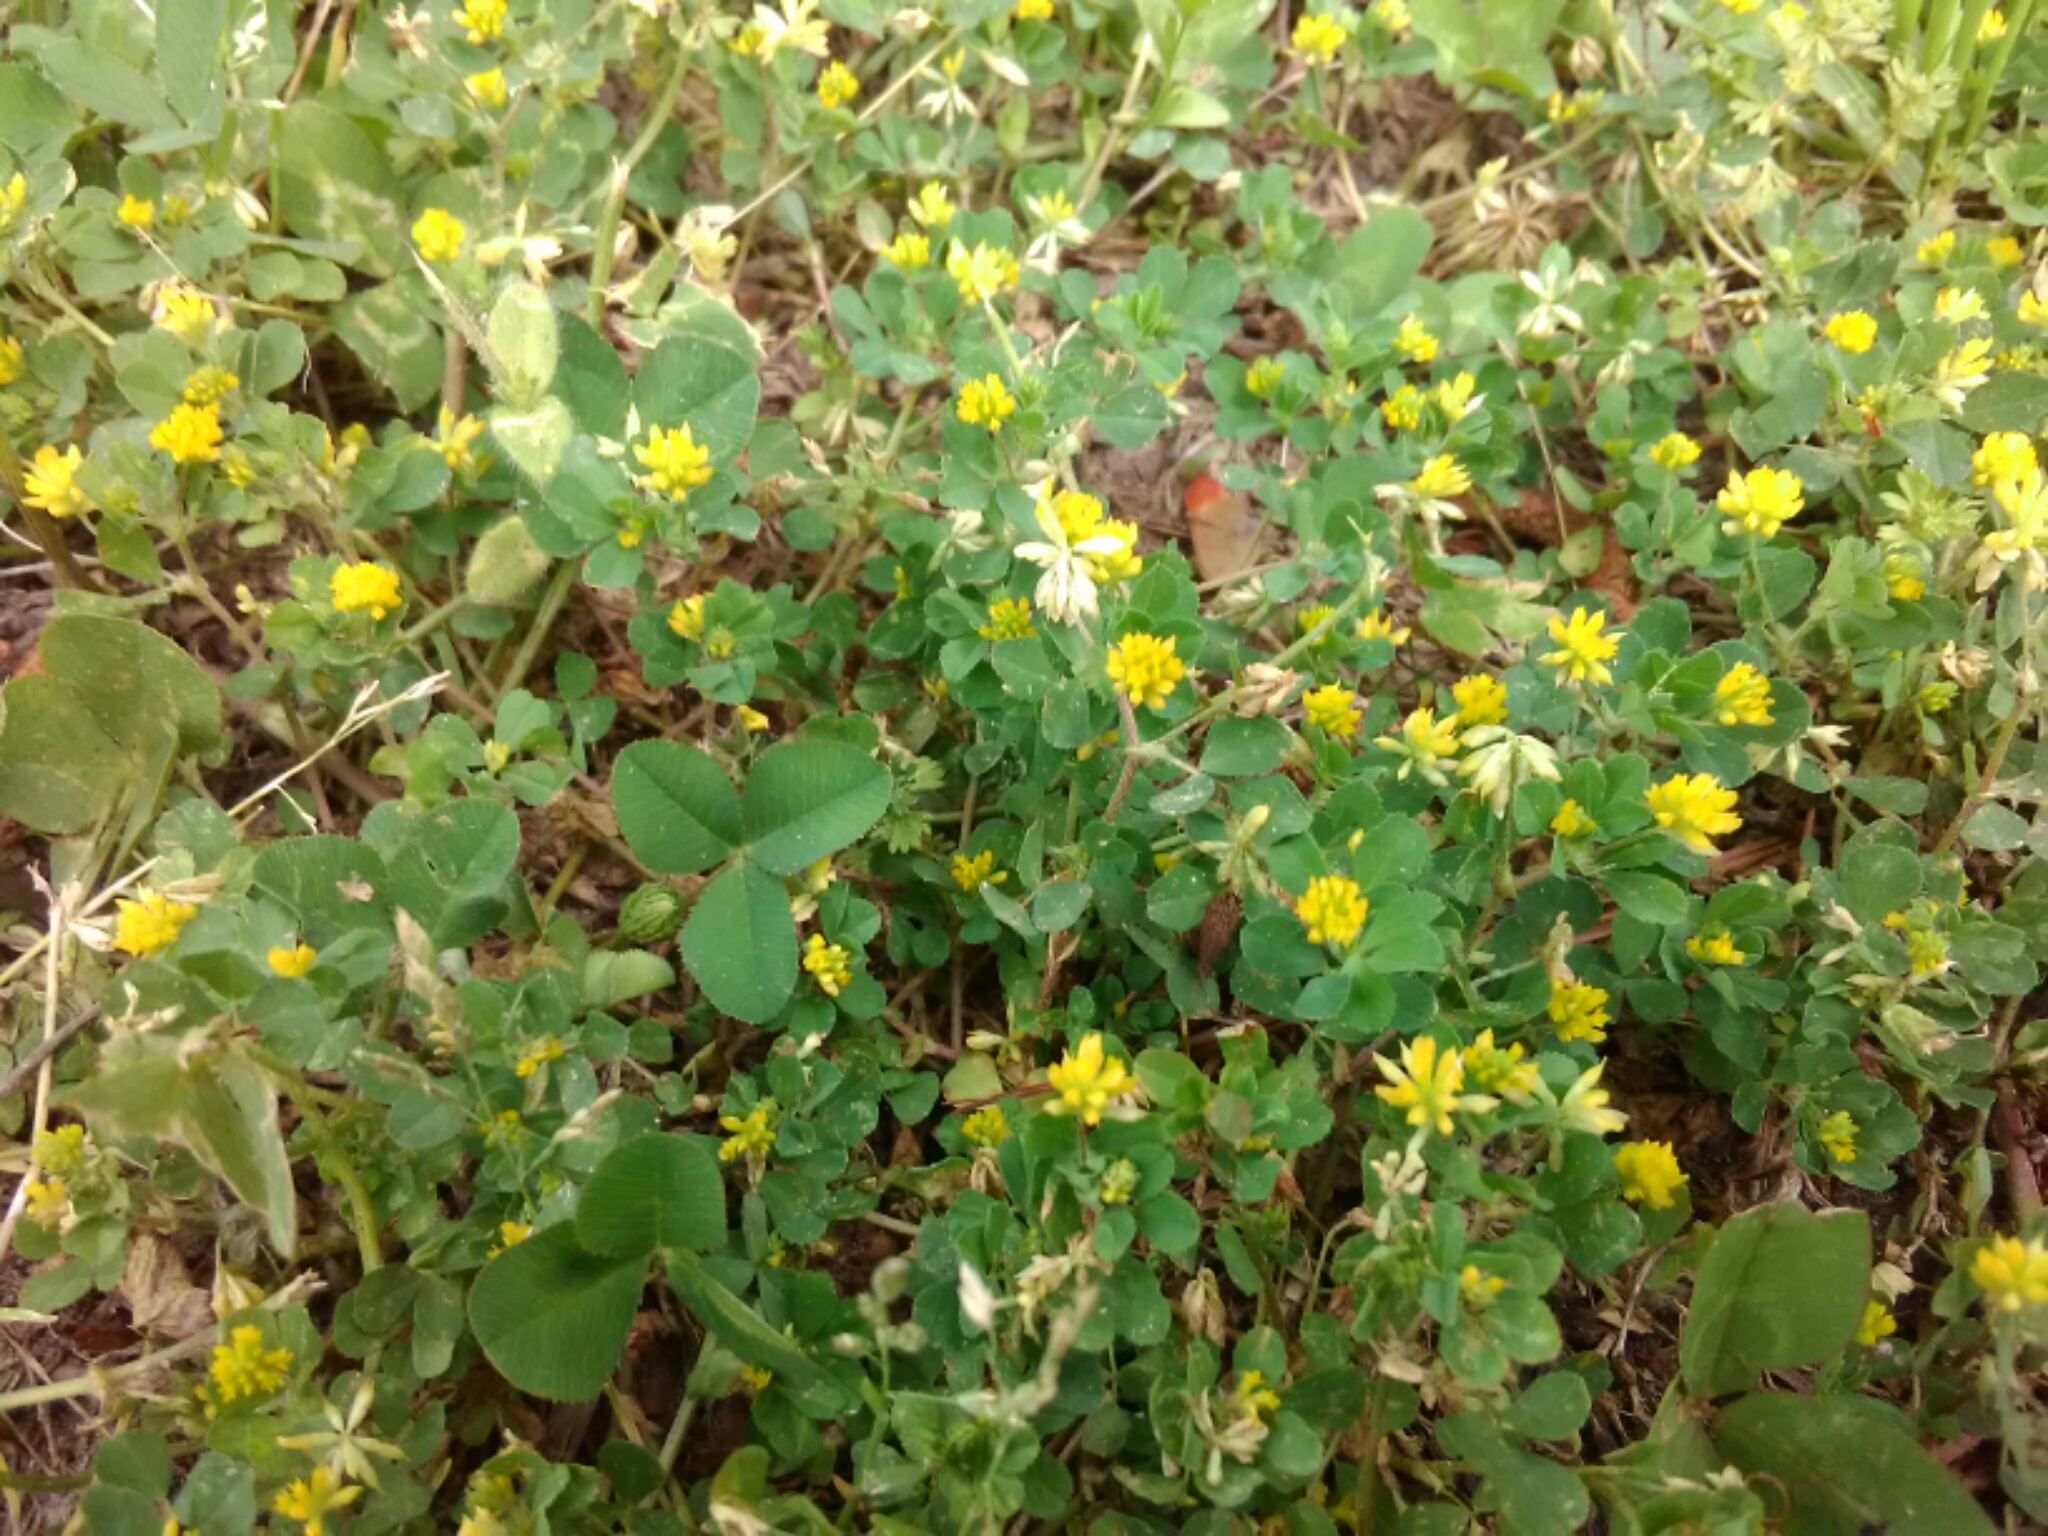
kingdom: Plantae
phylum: Tracheophyta
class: Magnoliopsida
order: Fabales
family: Fabaceae
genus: Trifolium
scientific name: Trifolium campestre
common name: Field clover
